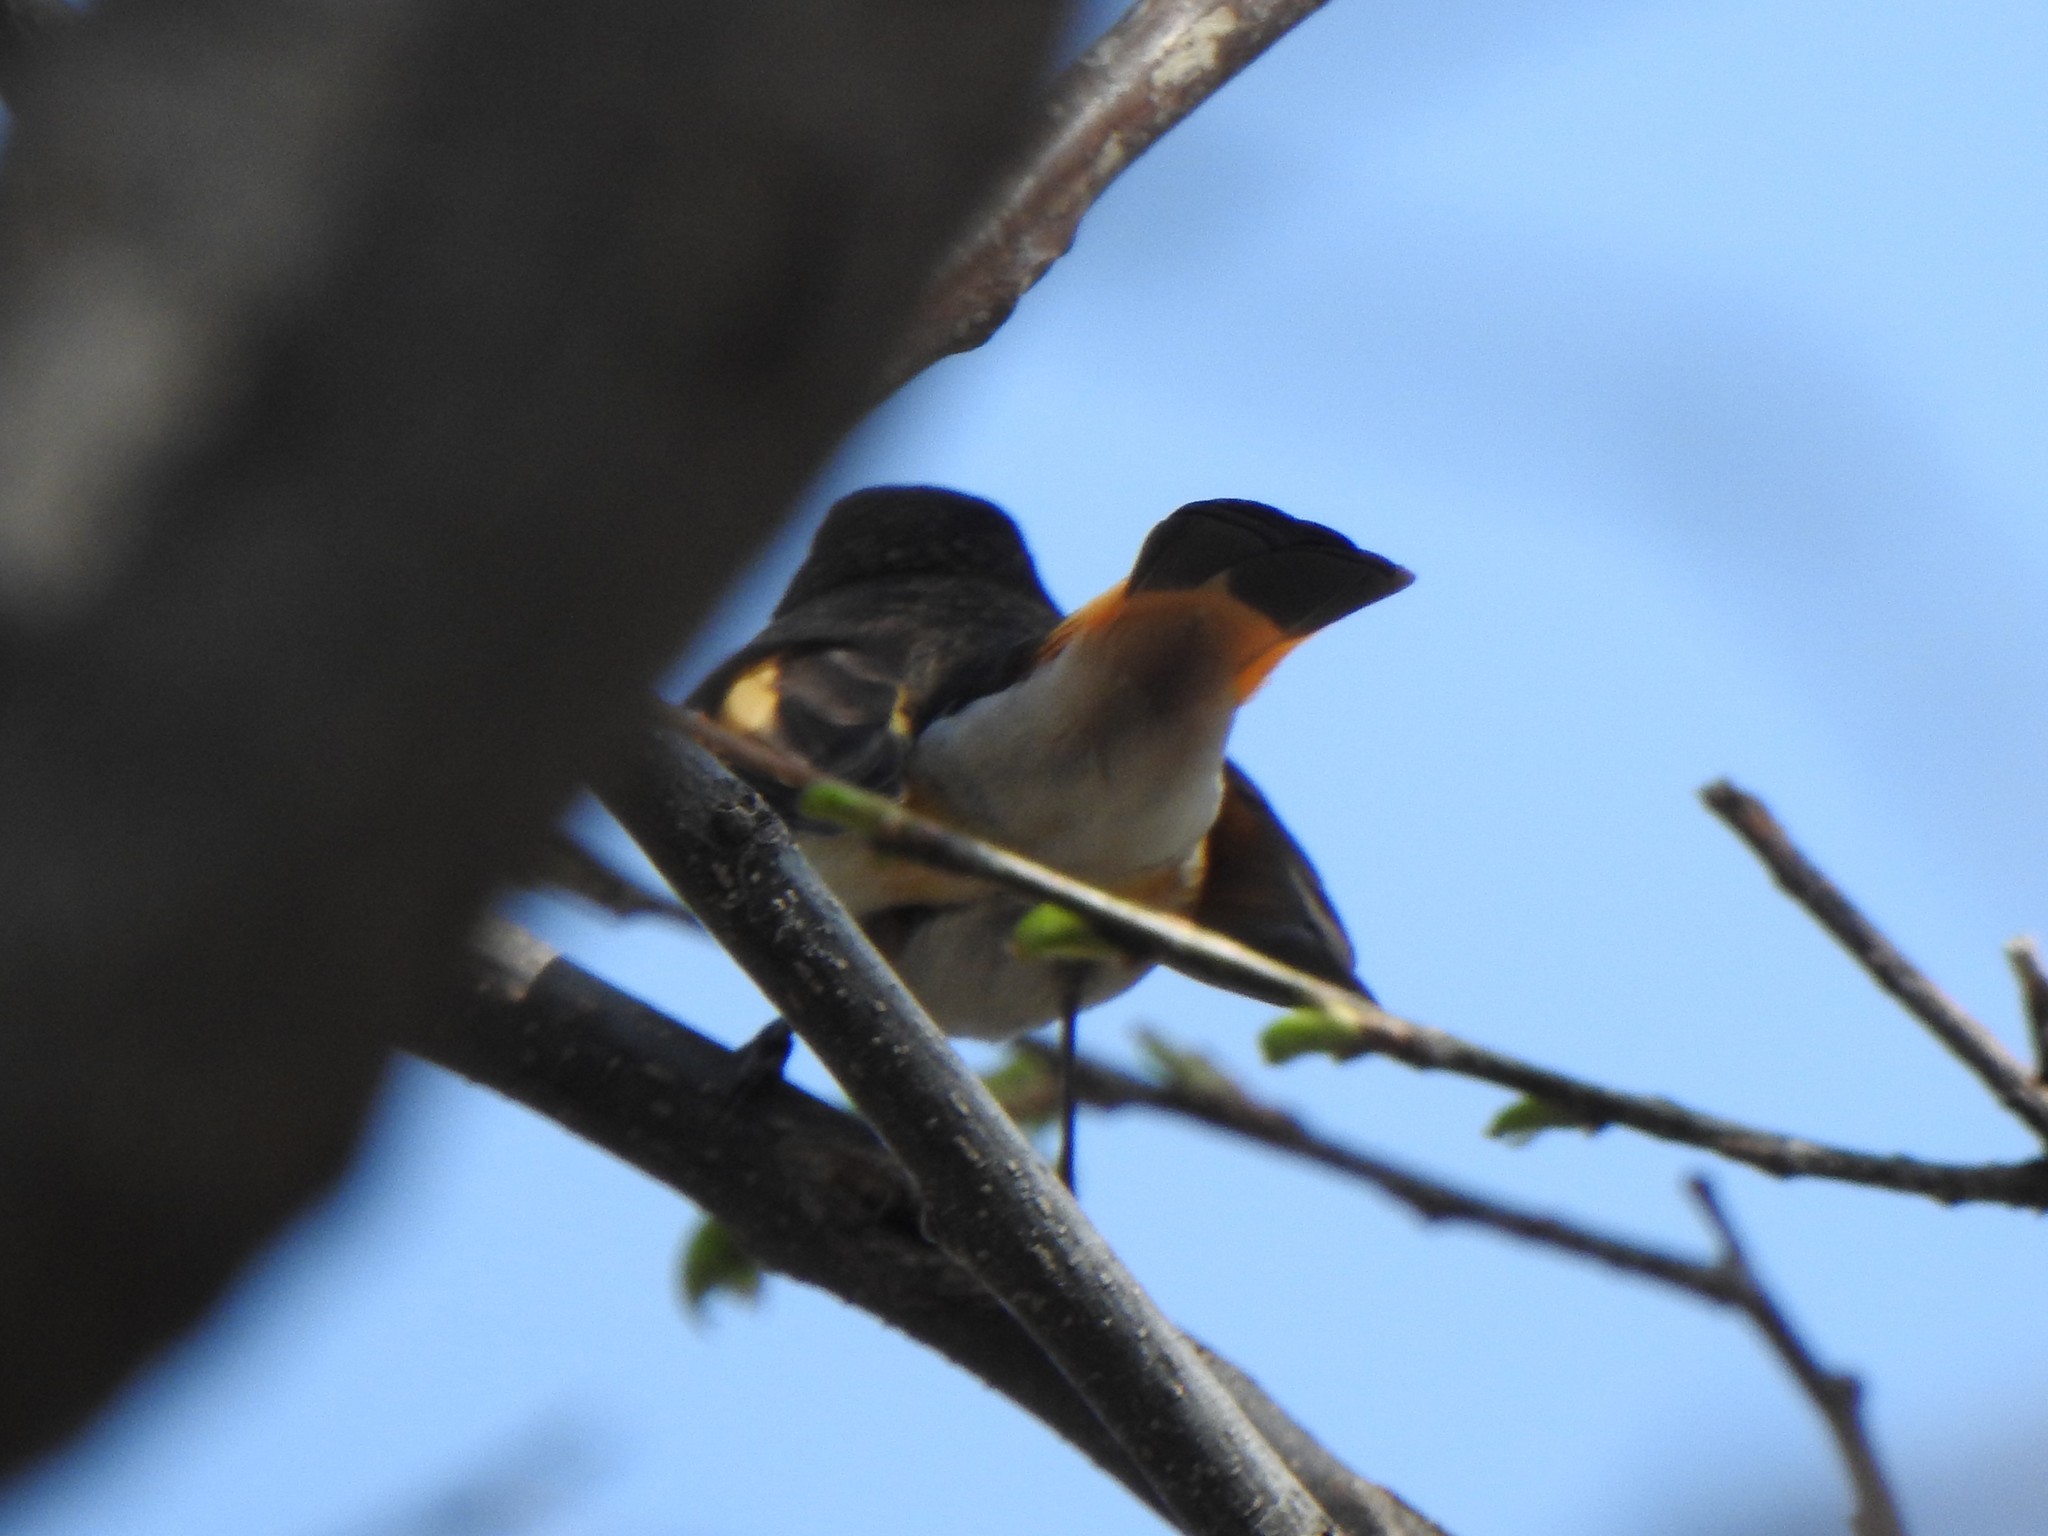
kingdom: Animalia
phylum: Chordata
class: Aves
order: Passeriformes
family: Parulidae
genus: Setophaga
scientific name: Setophaga ruticilla
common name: American redstart
